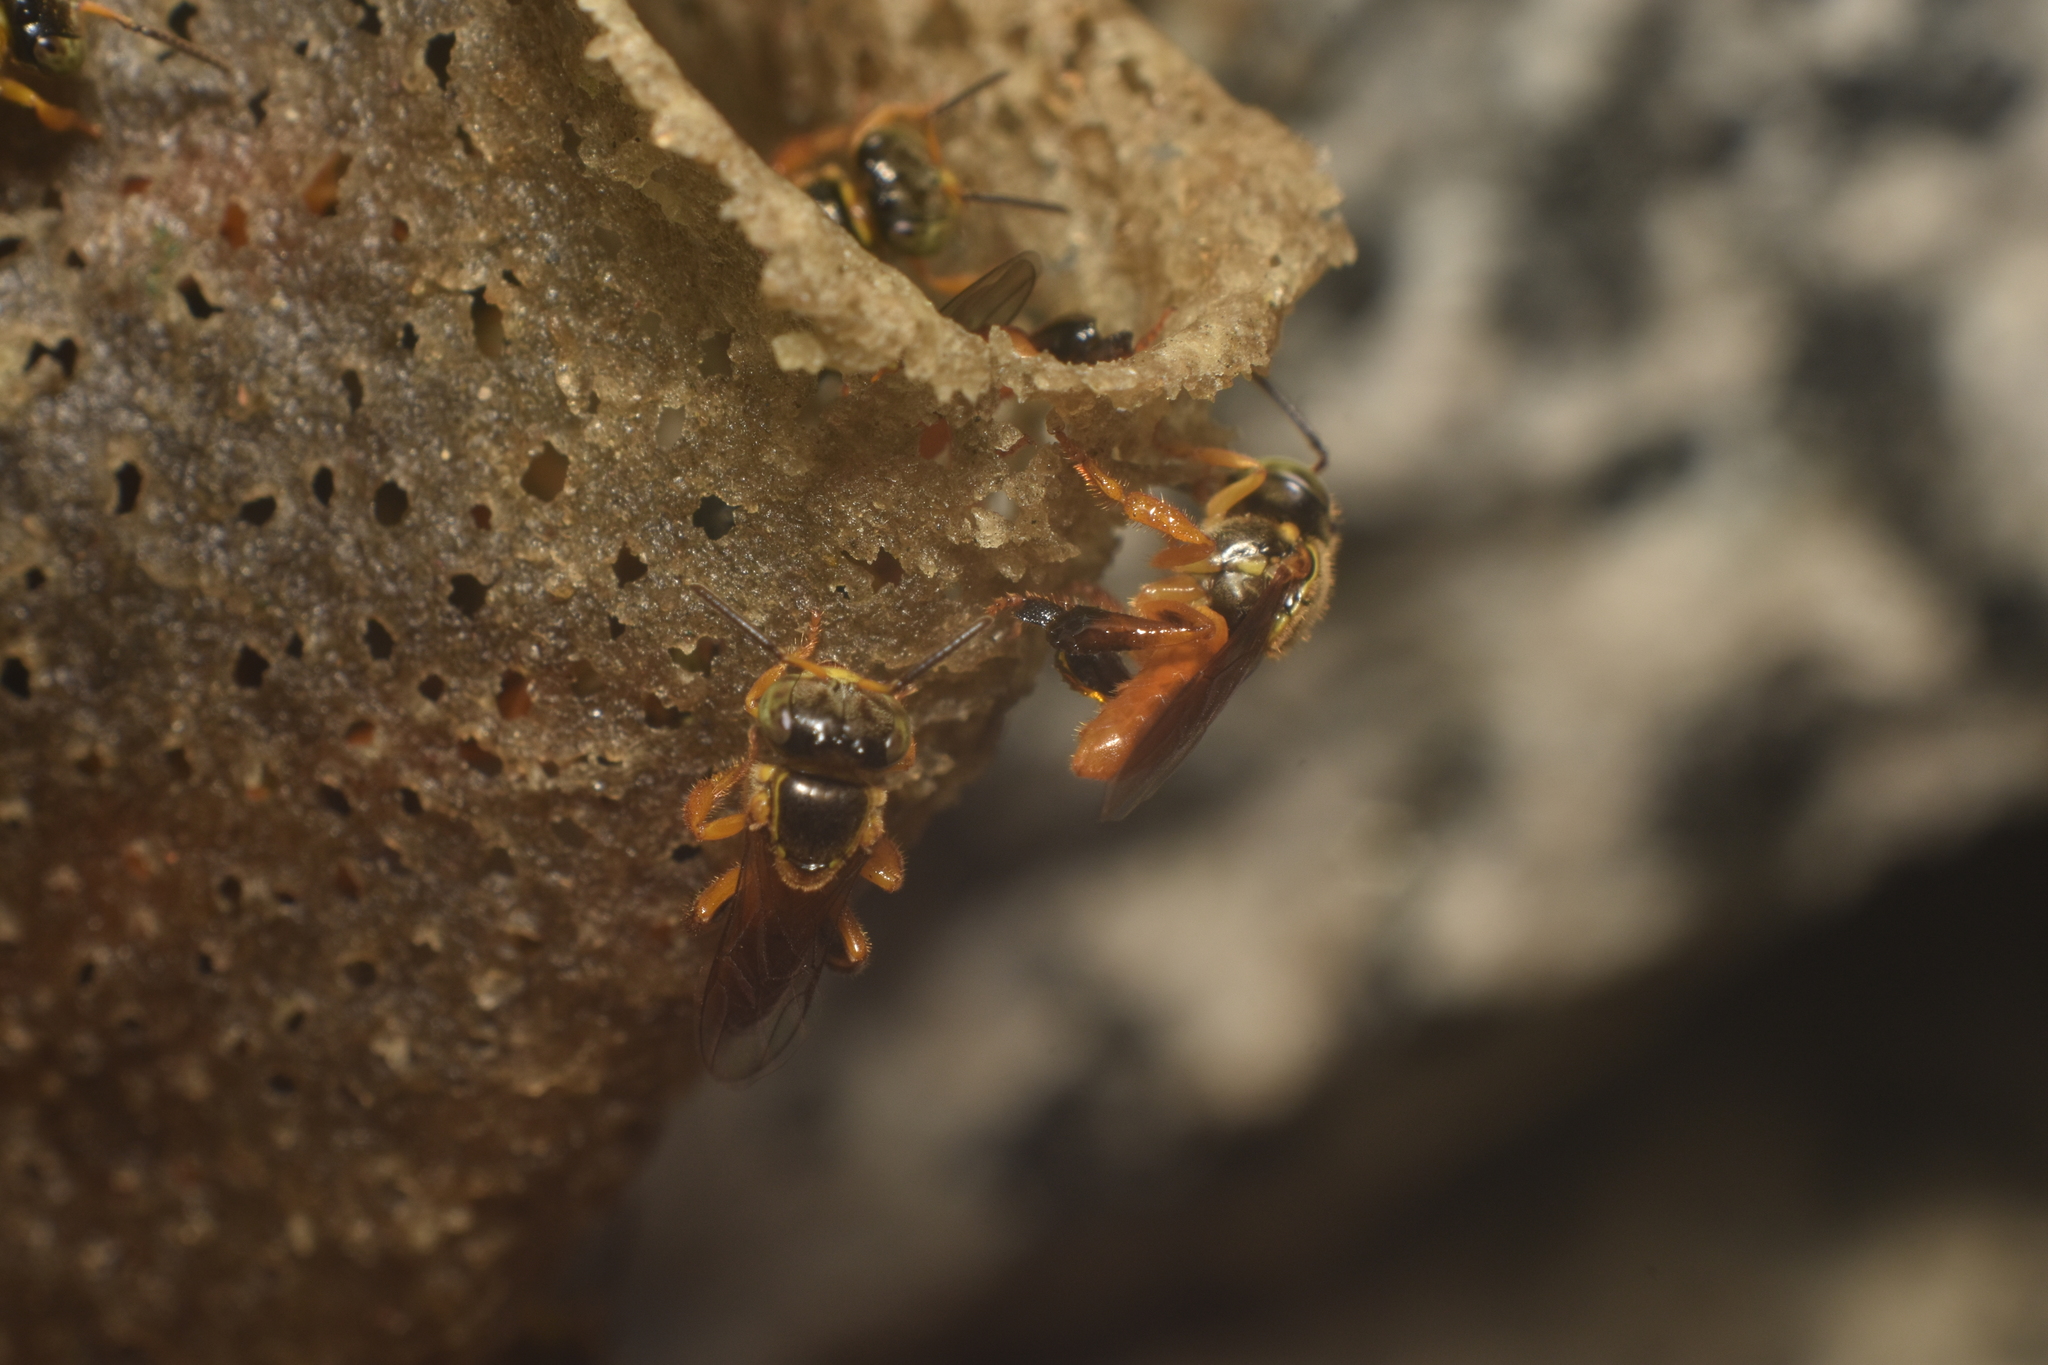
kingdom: Animalia
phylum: Arthropoda
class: Insecta
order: Hymenoptera
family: Apidae
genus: Tetragonisca
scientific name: Tetragonisca angustula
